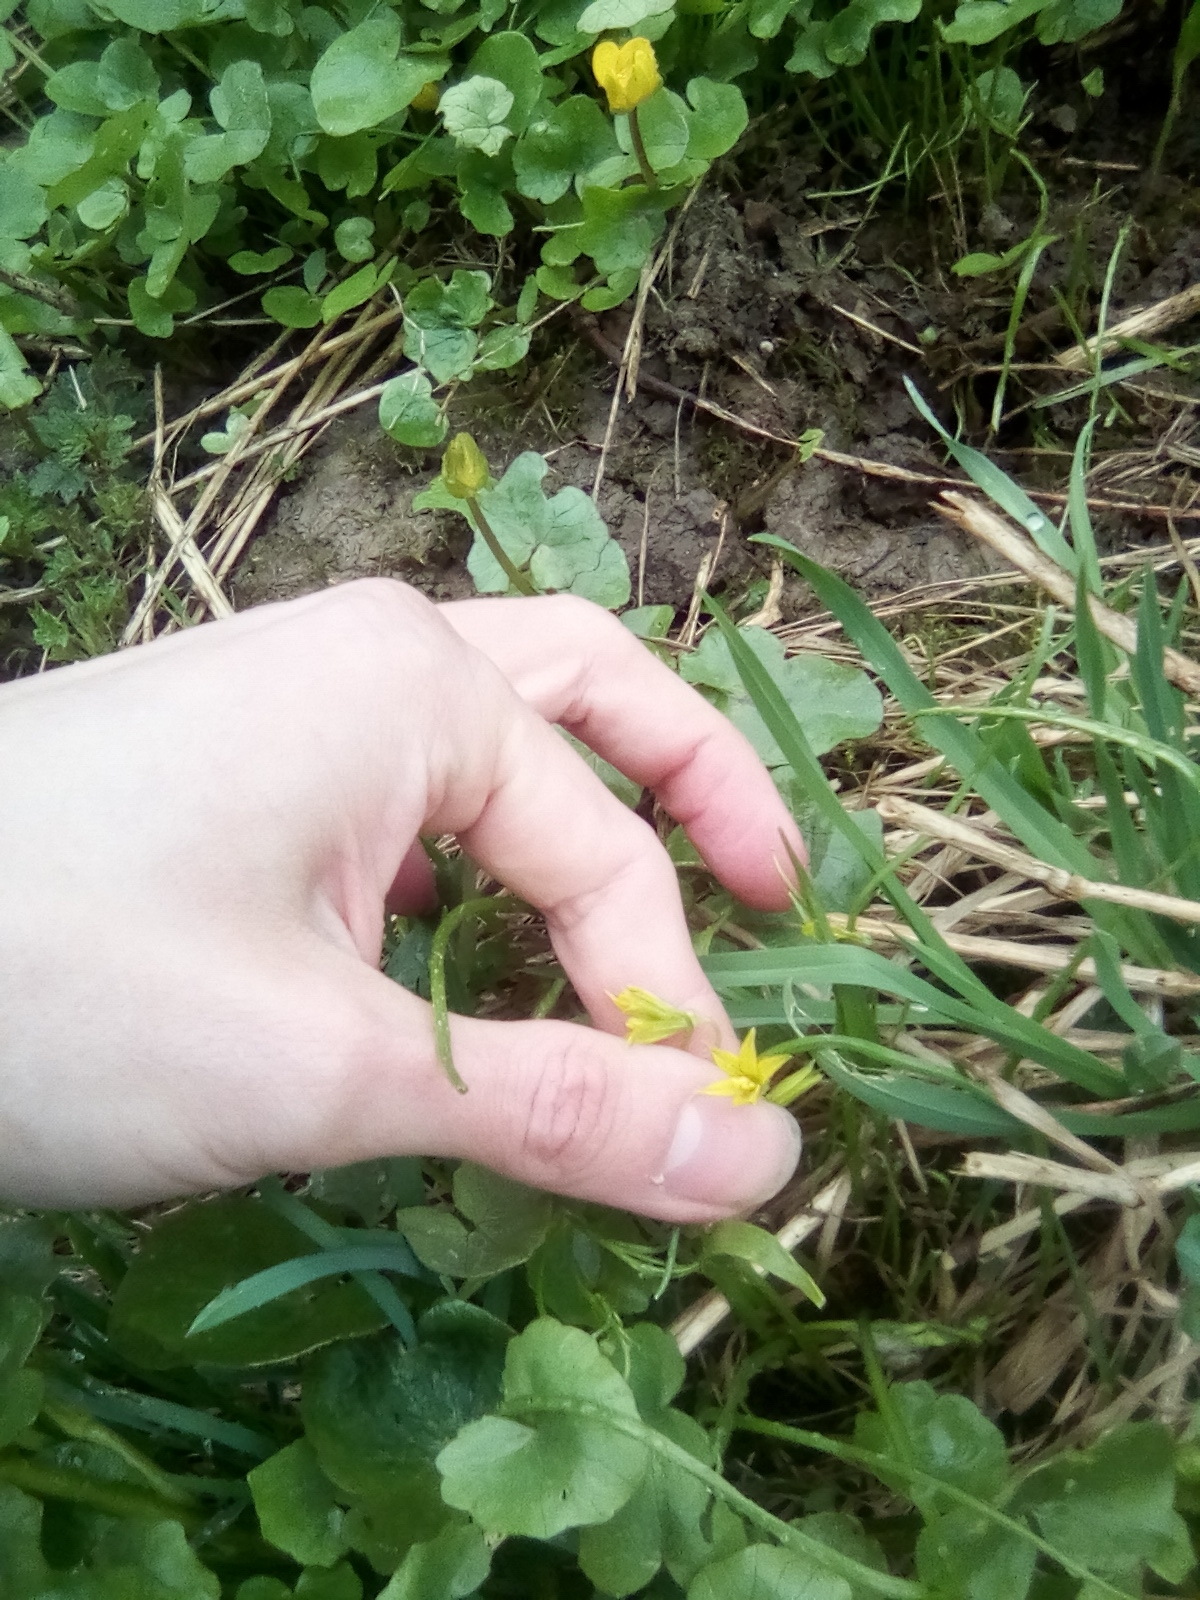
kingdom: Plantae
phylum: Tracheophyta
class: Liliopsida
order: Liliales
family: Liliaceae
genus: Gagea
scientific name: Gagea minima
